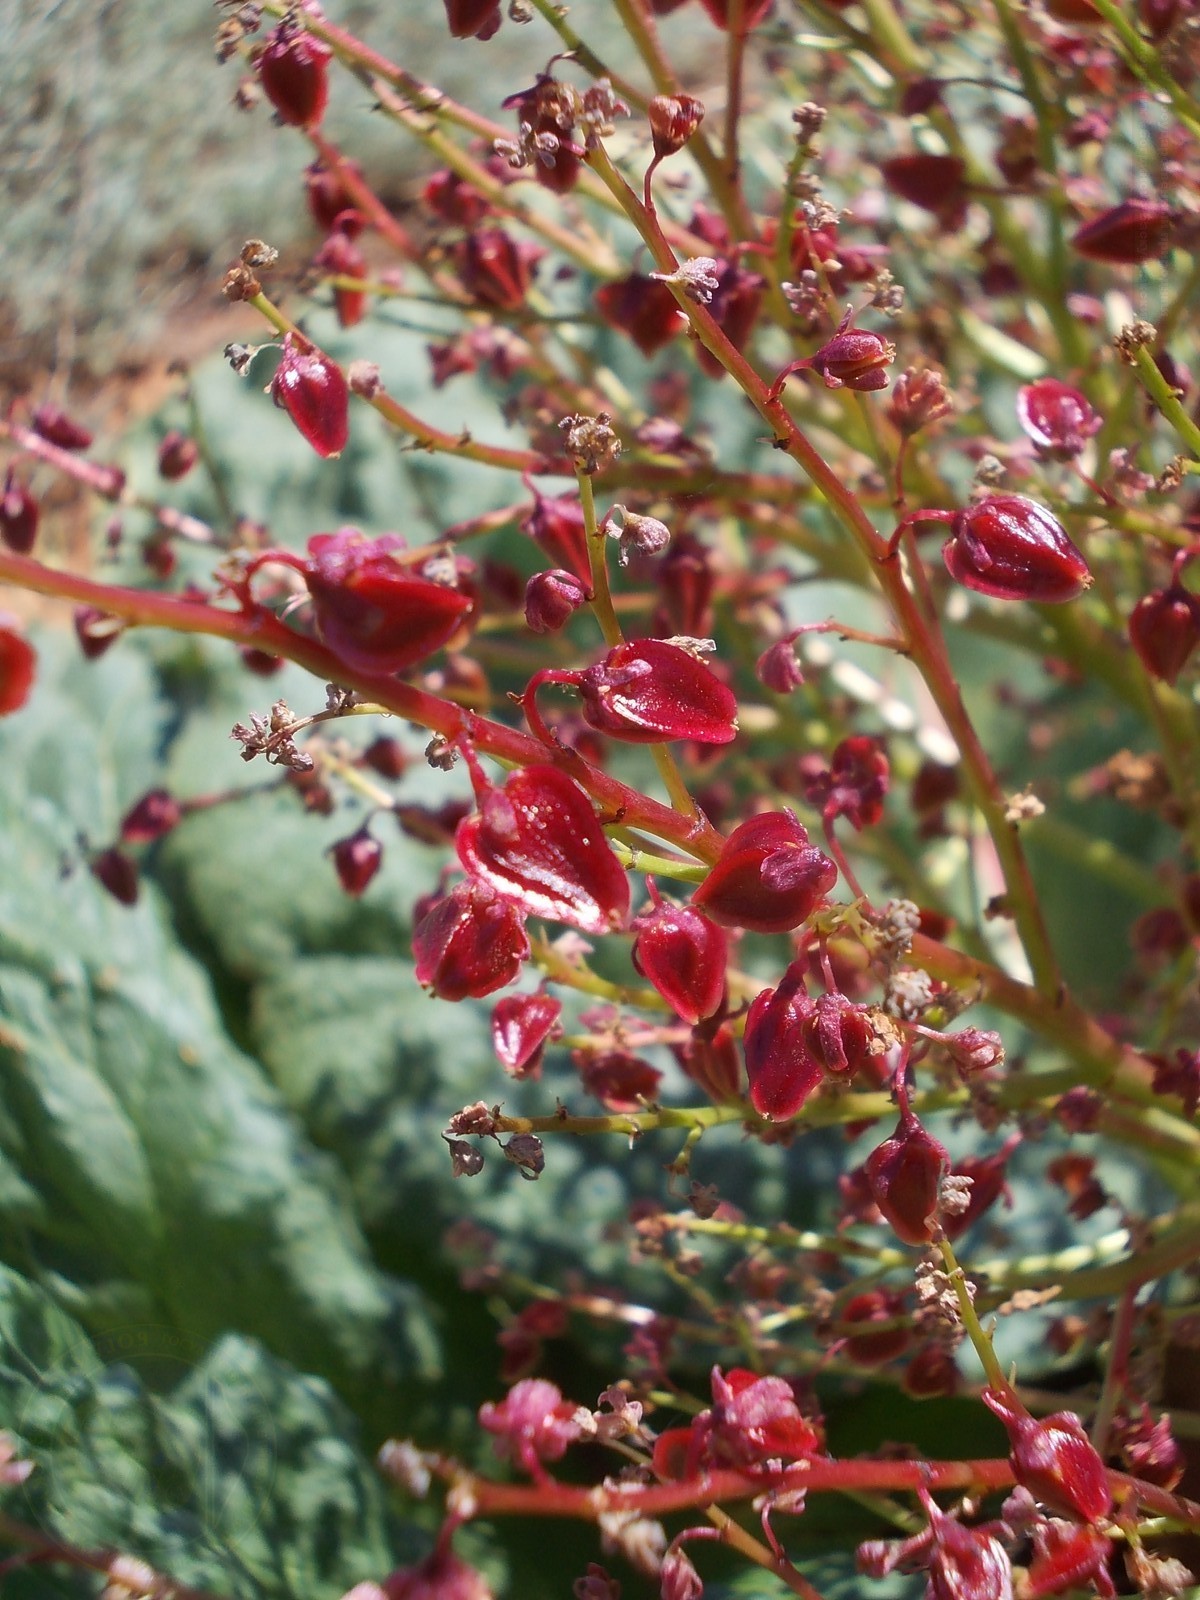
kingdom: Plantae
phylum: Tracheophyta
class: Magnoliopsida
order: Caryophyllales
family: Polygonaceae
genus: Rheum
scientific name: Rheum tataricum
